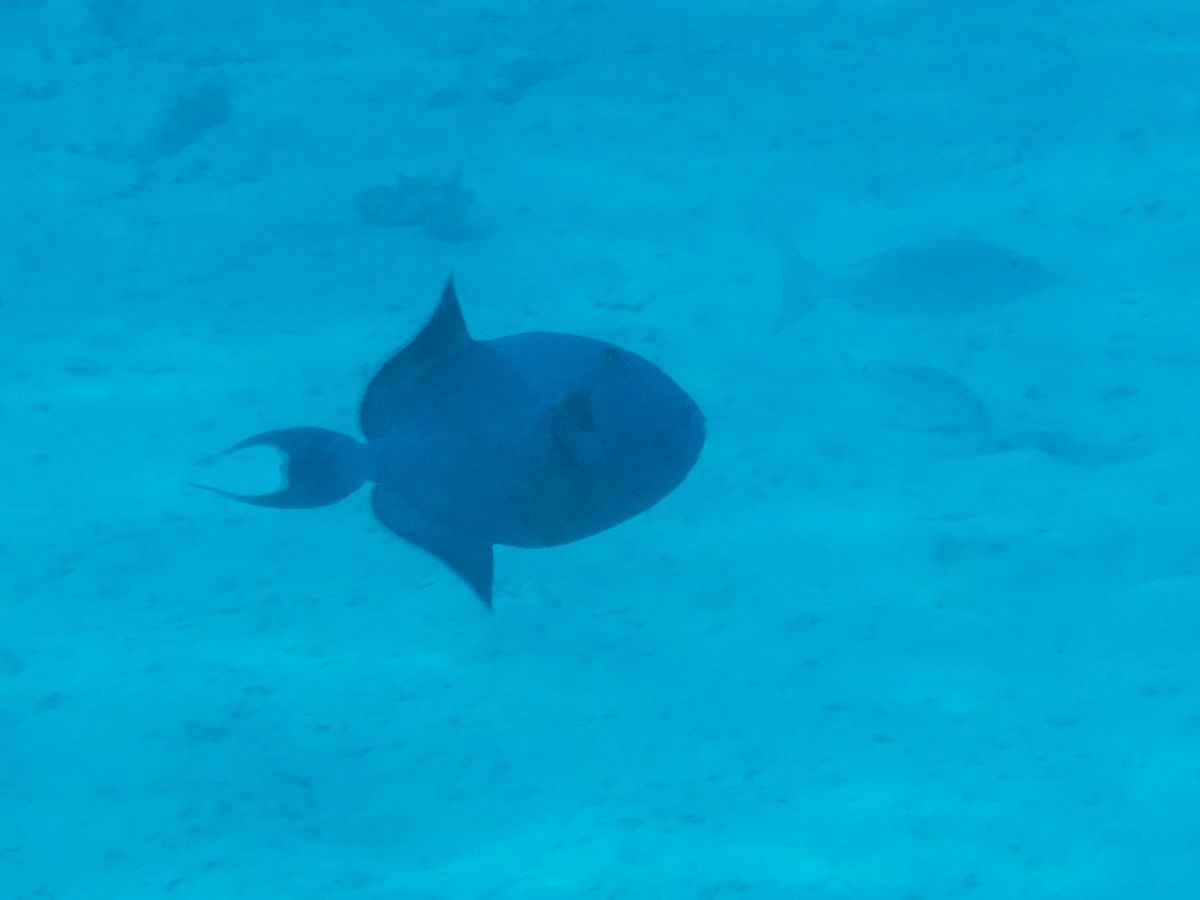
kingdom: Animalia
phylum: Chordata
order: Tetraodontiformes
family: Balistidae
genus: Pseudobalistes
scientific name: Pseudobalistes fuscus
